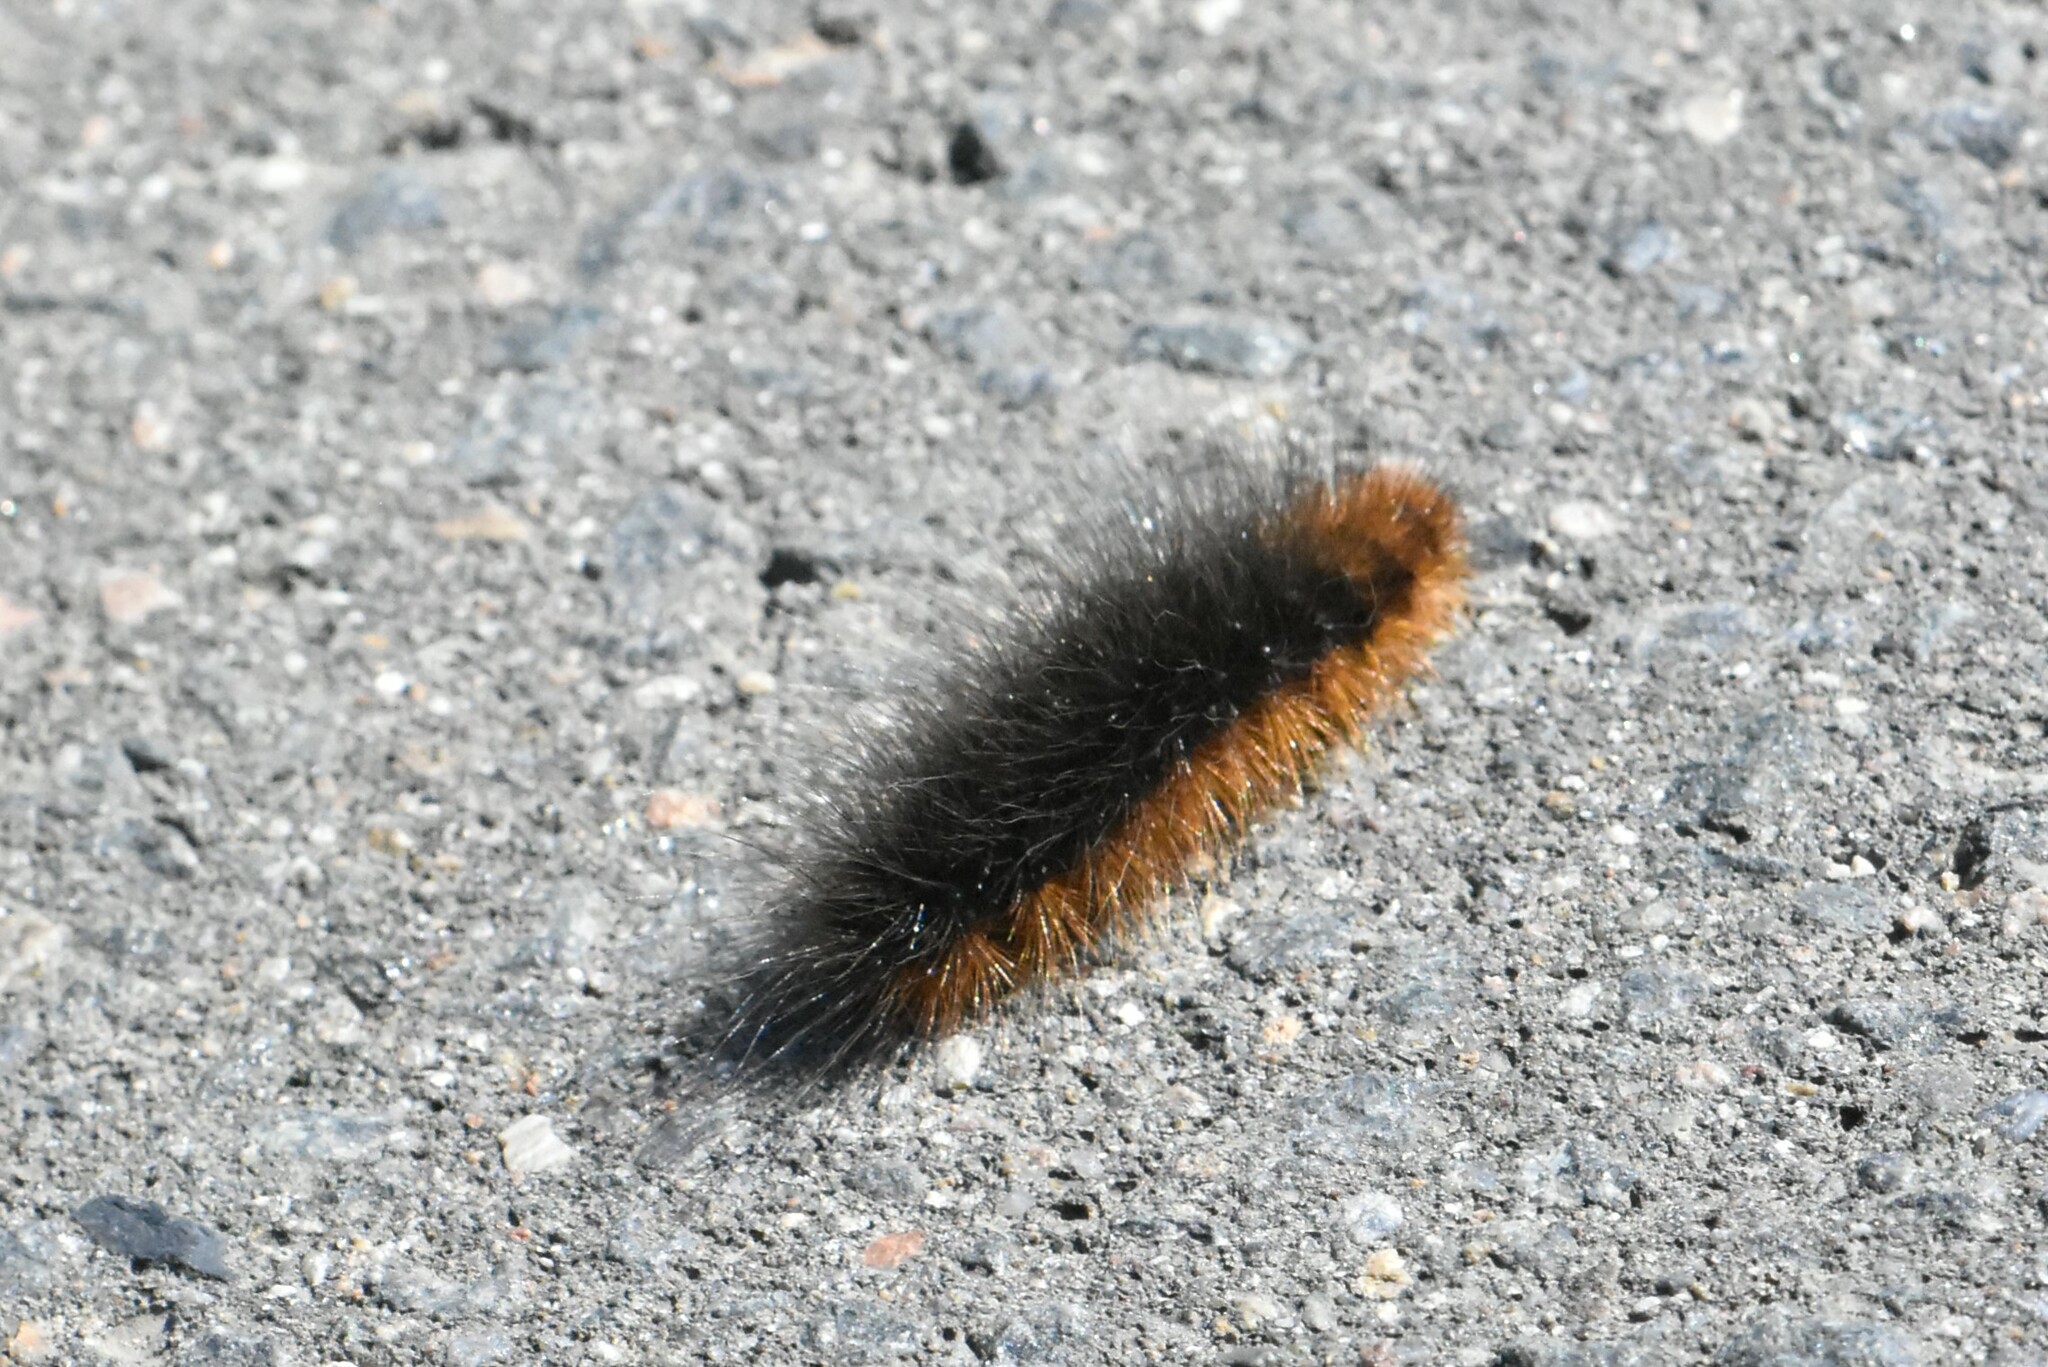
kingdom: Animalia
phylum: Arthropoda
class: Insecta
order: Lepidoptera
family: Erebidae
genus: Arctia
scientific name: Arctia caja
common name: Garden tiger
